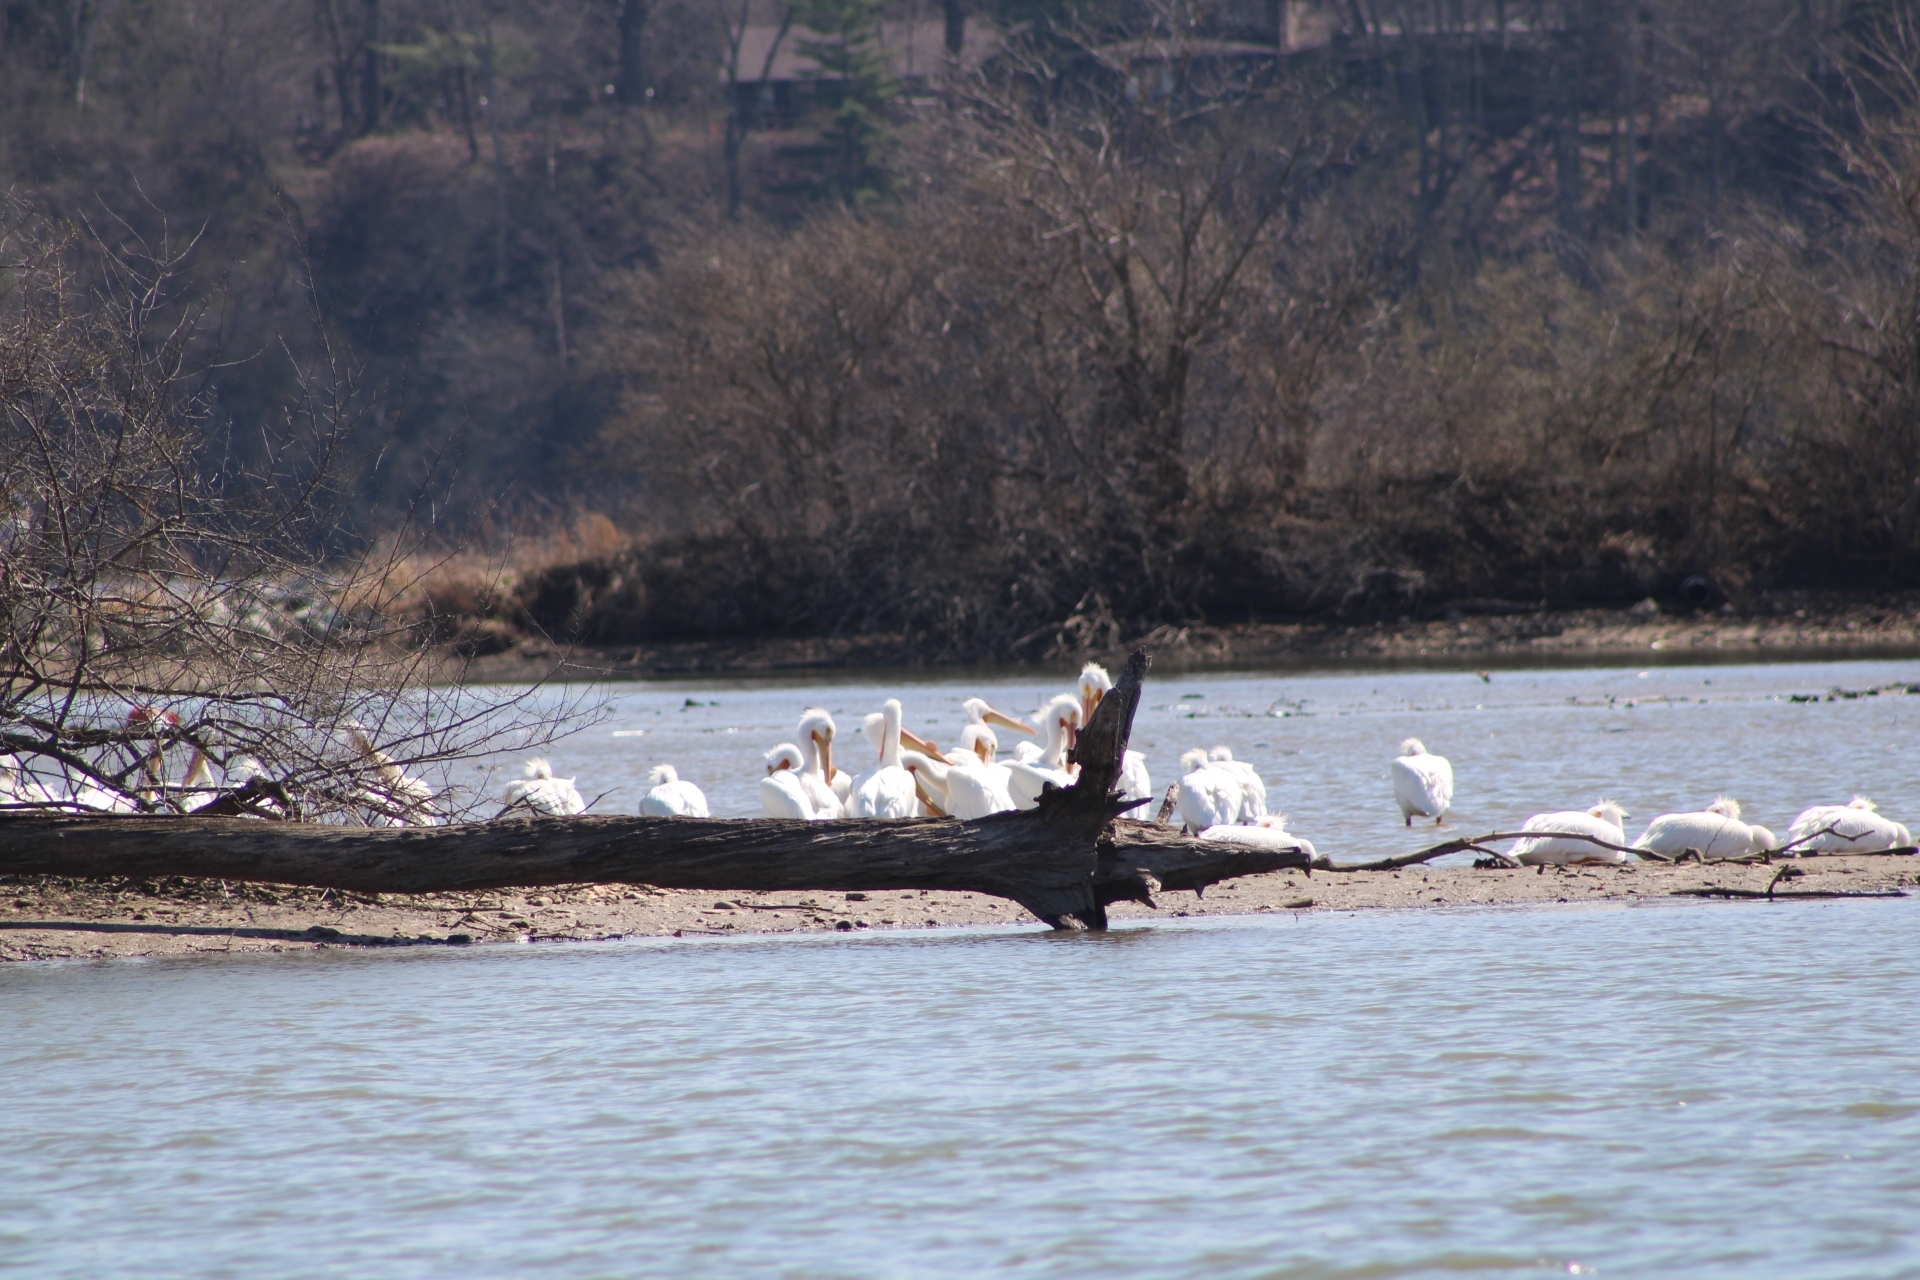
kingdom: Animalia
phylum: Chordata
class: Aves
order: Pelecaniformes
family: Pelecanidae
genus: Pelecanus
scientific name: Pelecanus erythrorhynchos
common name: American white pelican
